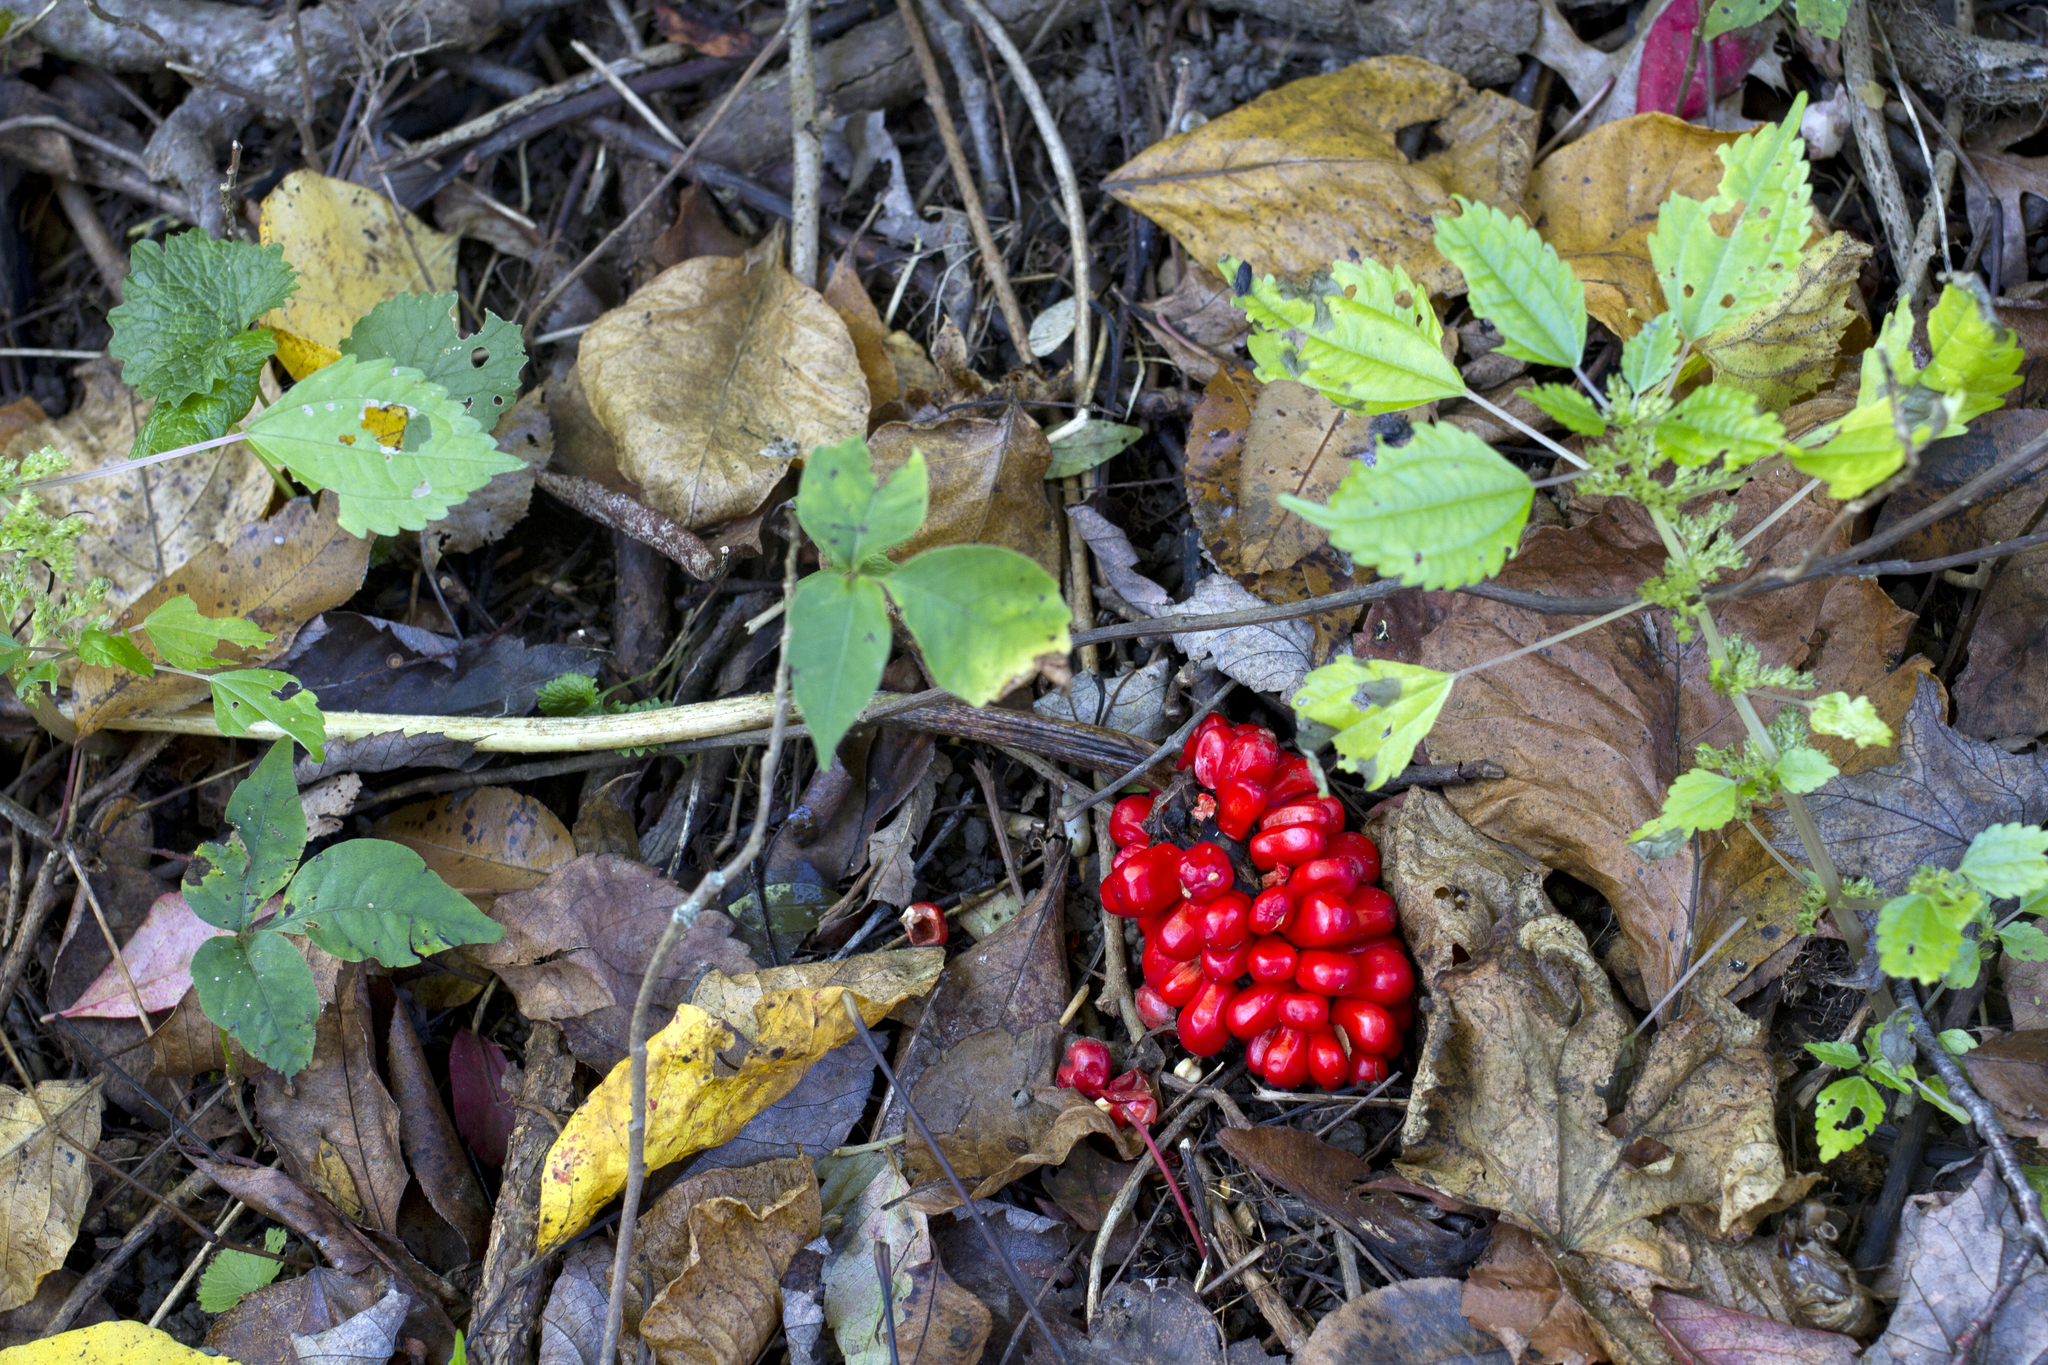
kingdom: Plantae
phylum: Tracheophyta
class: Liliopsida
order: Alismatales
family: Araceae
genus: Arisaema
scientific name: Arisaema triphyllum
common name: Jack-in-the-pulpit
